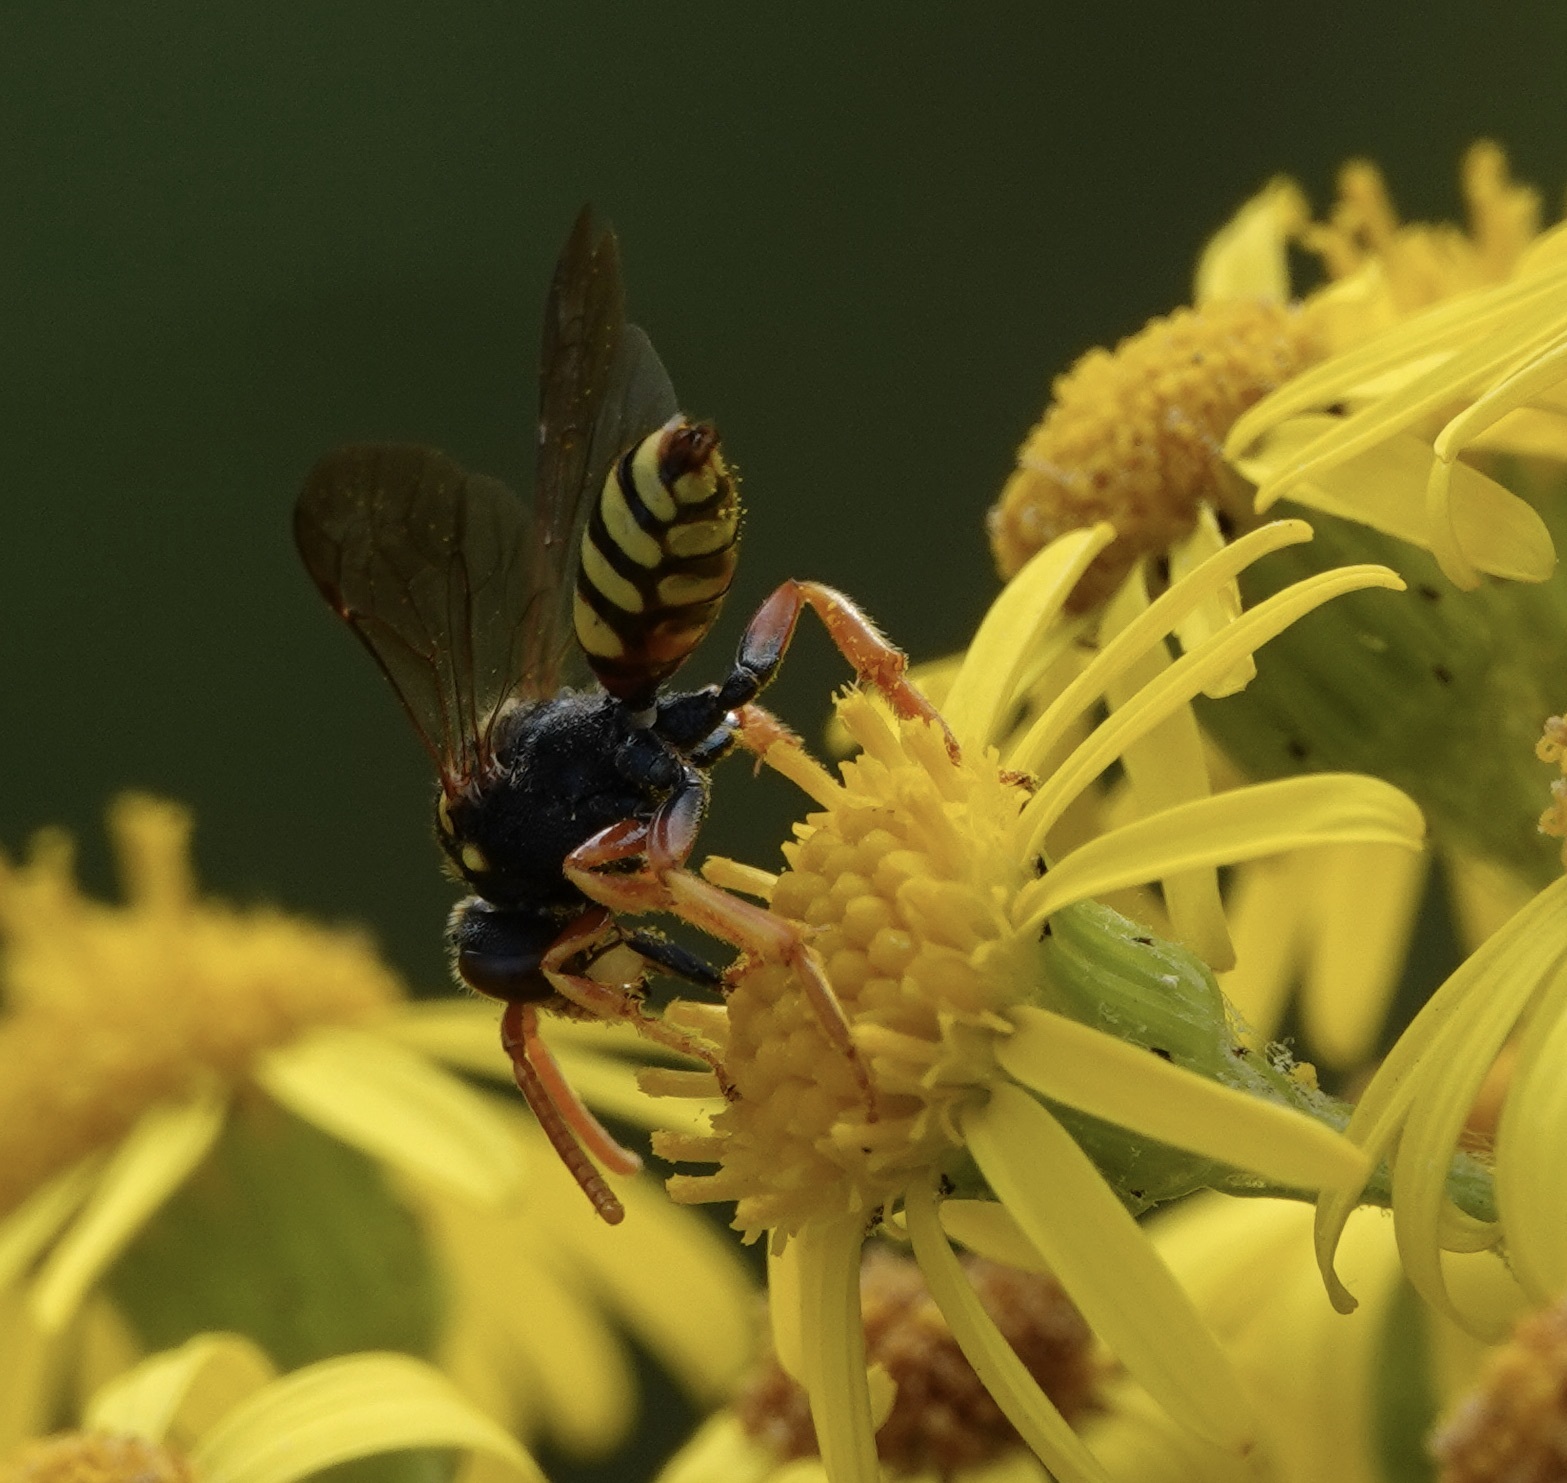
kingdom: Animalia
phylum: Arthropoda
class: Insecta
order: Hymenoptera
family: Apidae
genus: Nomada
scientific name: Nomada fucata
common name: Painted nomad bee
